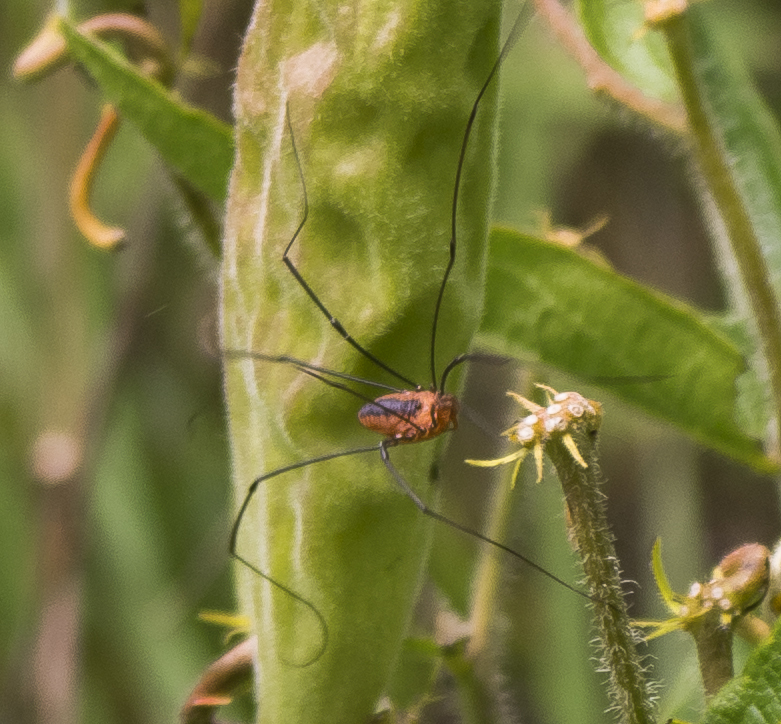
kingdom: Animalia
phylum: Arthropoda
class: Arachnida
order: Opiliones
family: Sclerosomatidae
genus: Leiobunum
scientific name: Leiobunum vittatum
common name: Eastern harvestman
